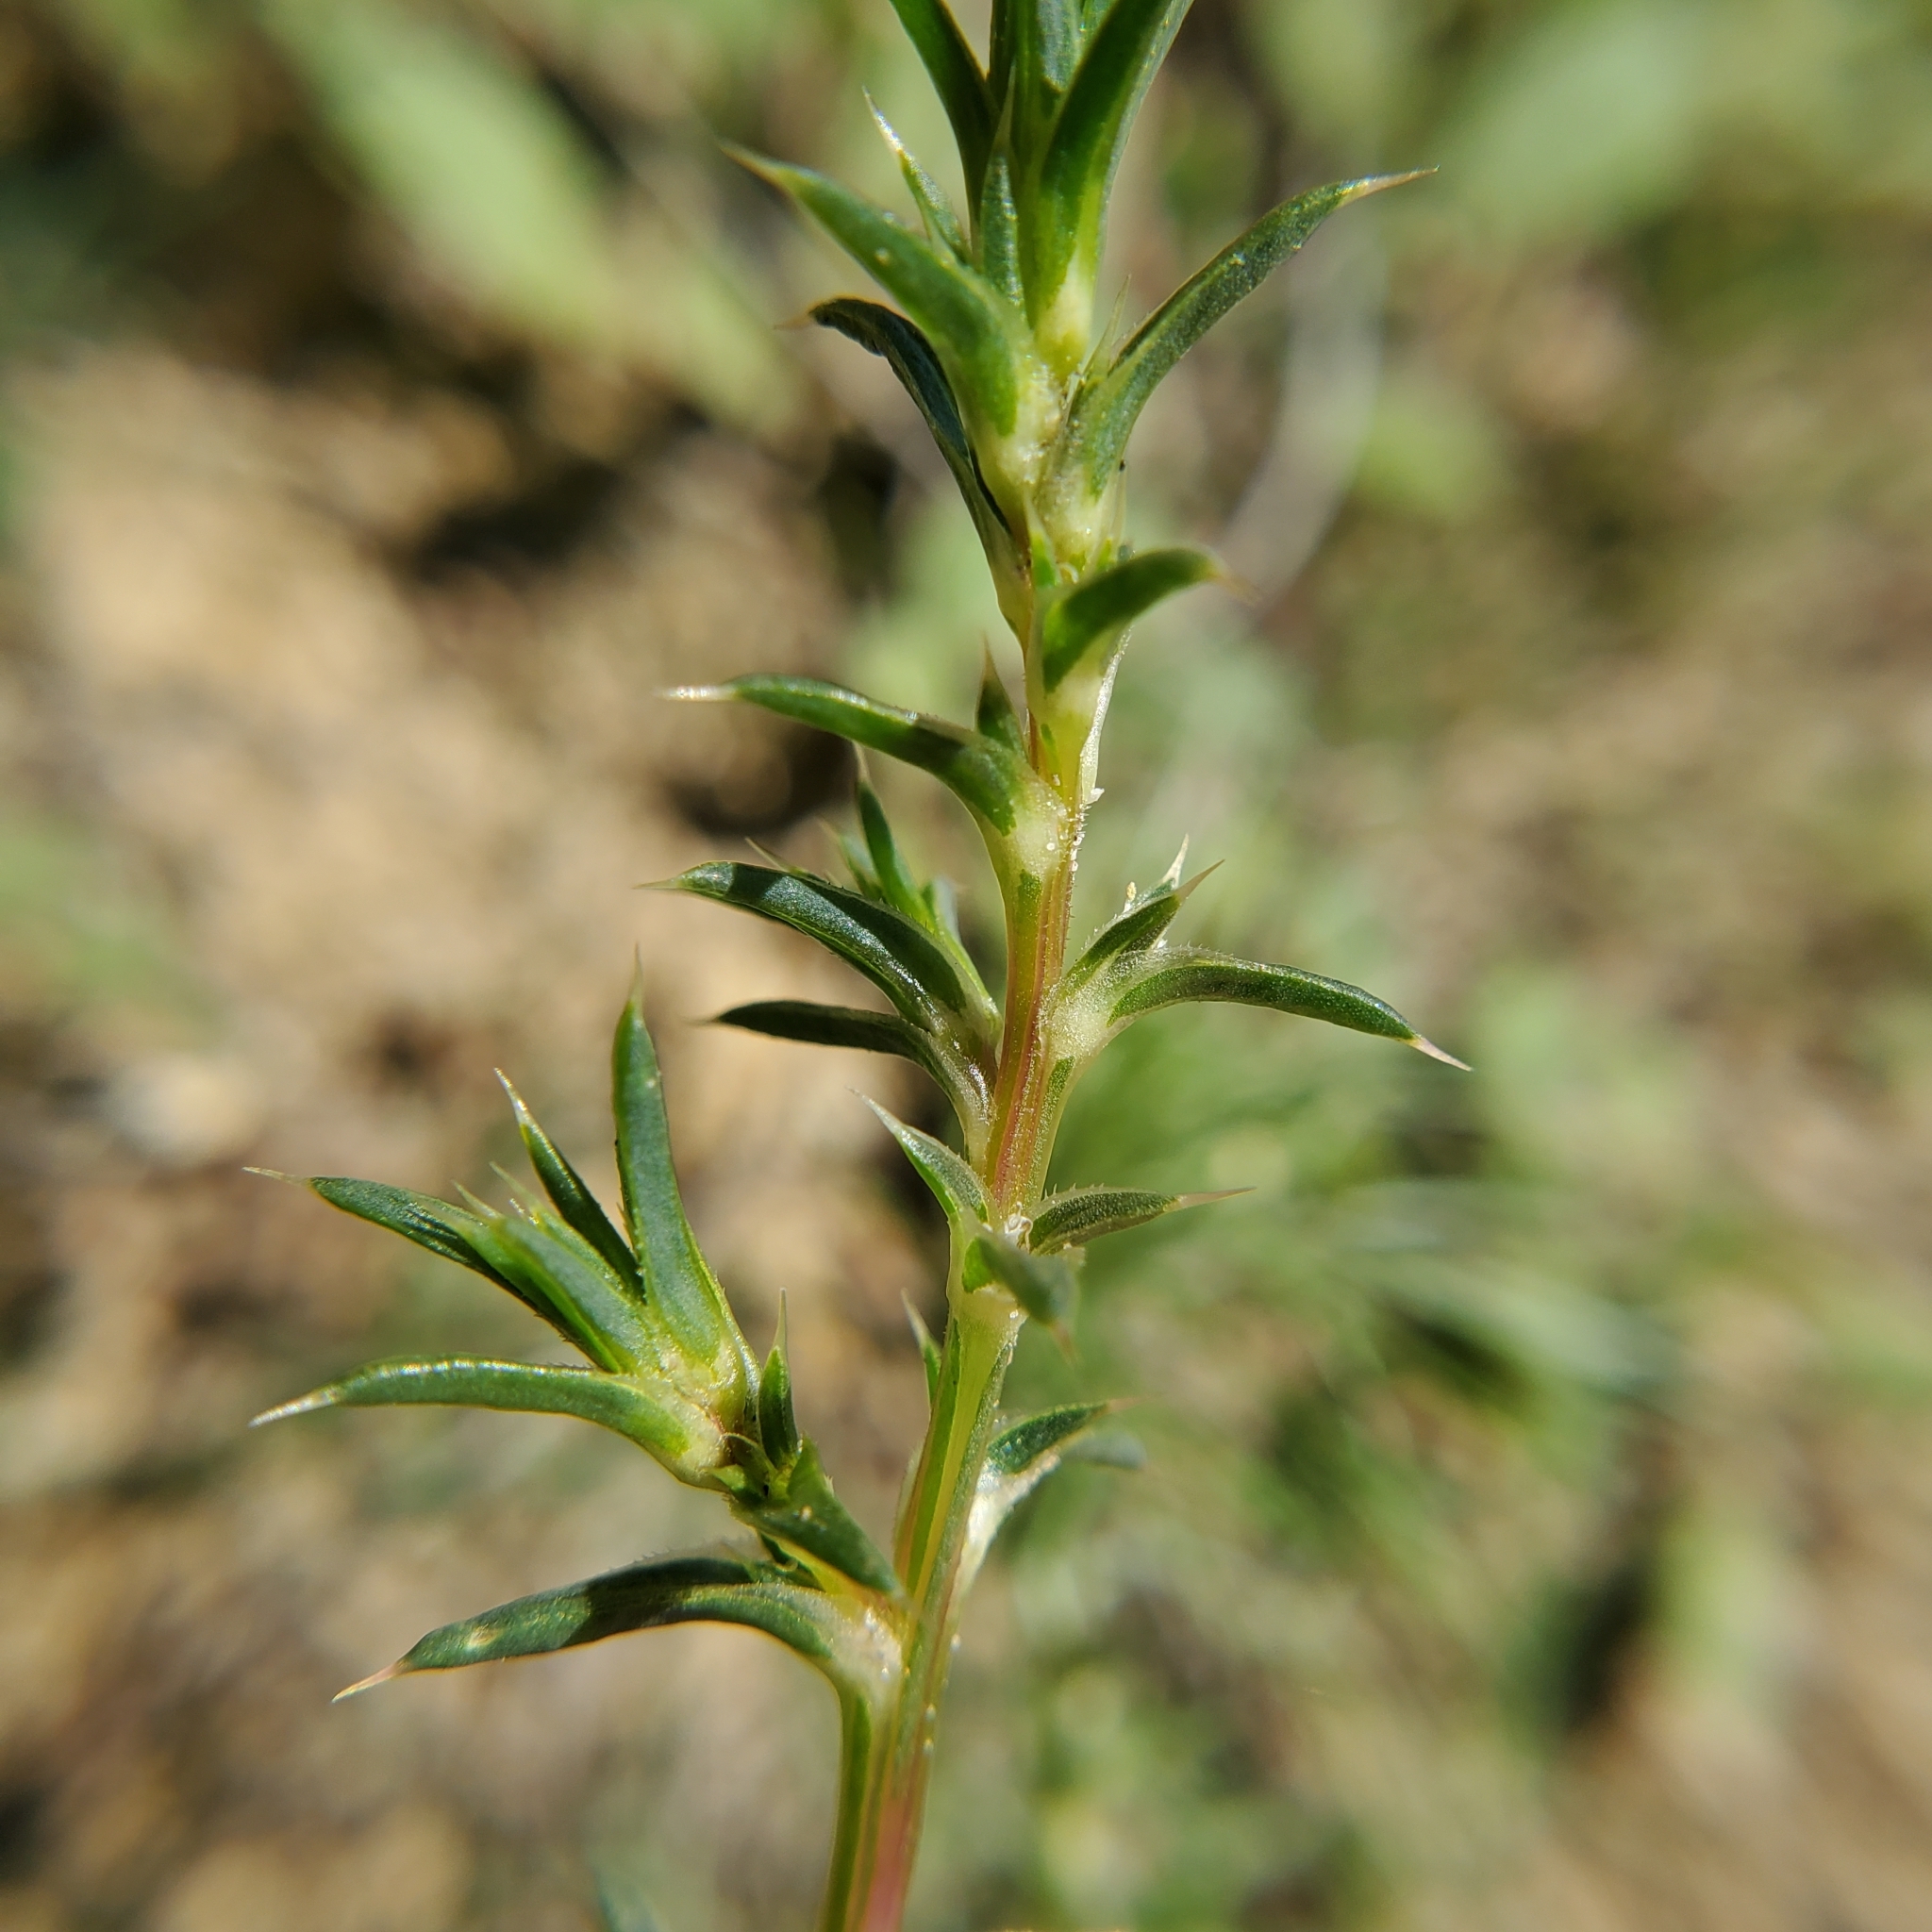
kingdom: Plantae
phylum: Tracheophyta
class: Magnoliopsida
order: Caryophyllales
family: Amaranthaceae
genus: Salsola
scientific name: Salsola australis
